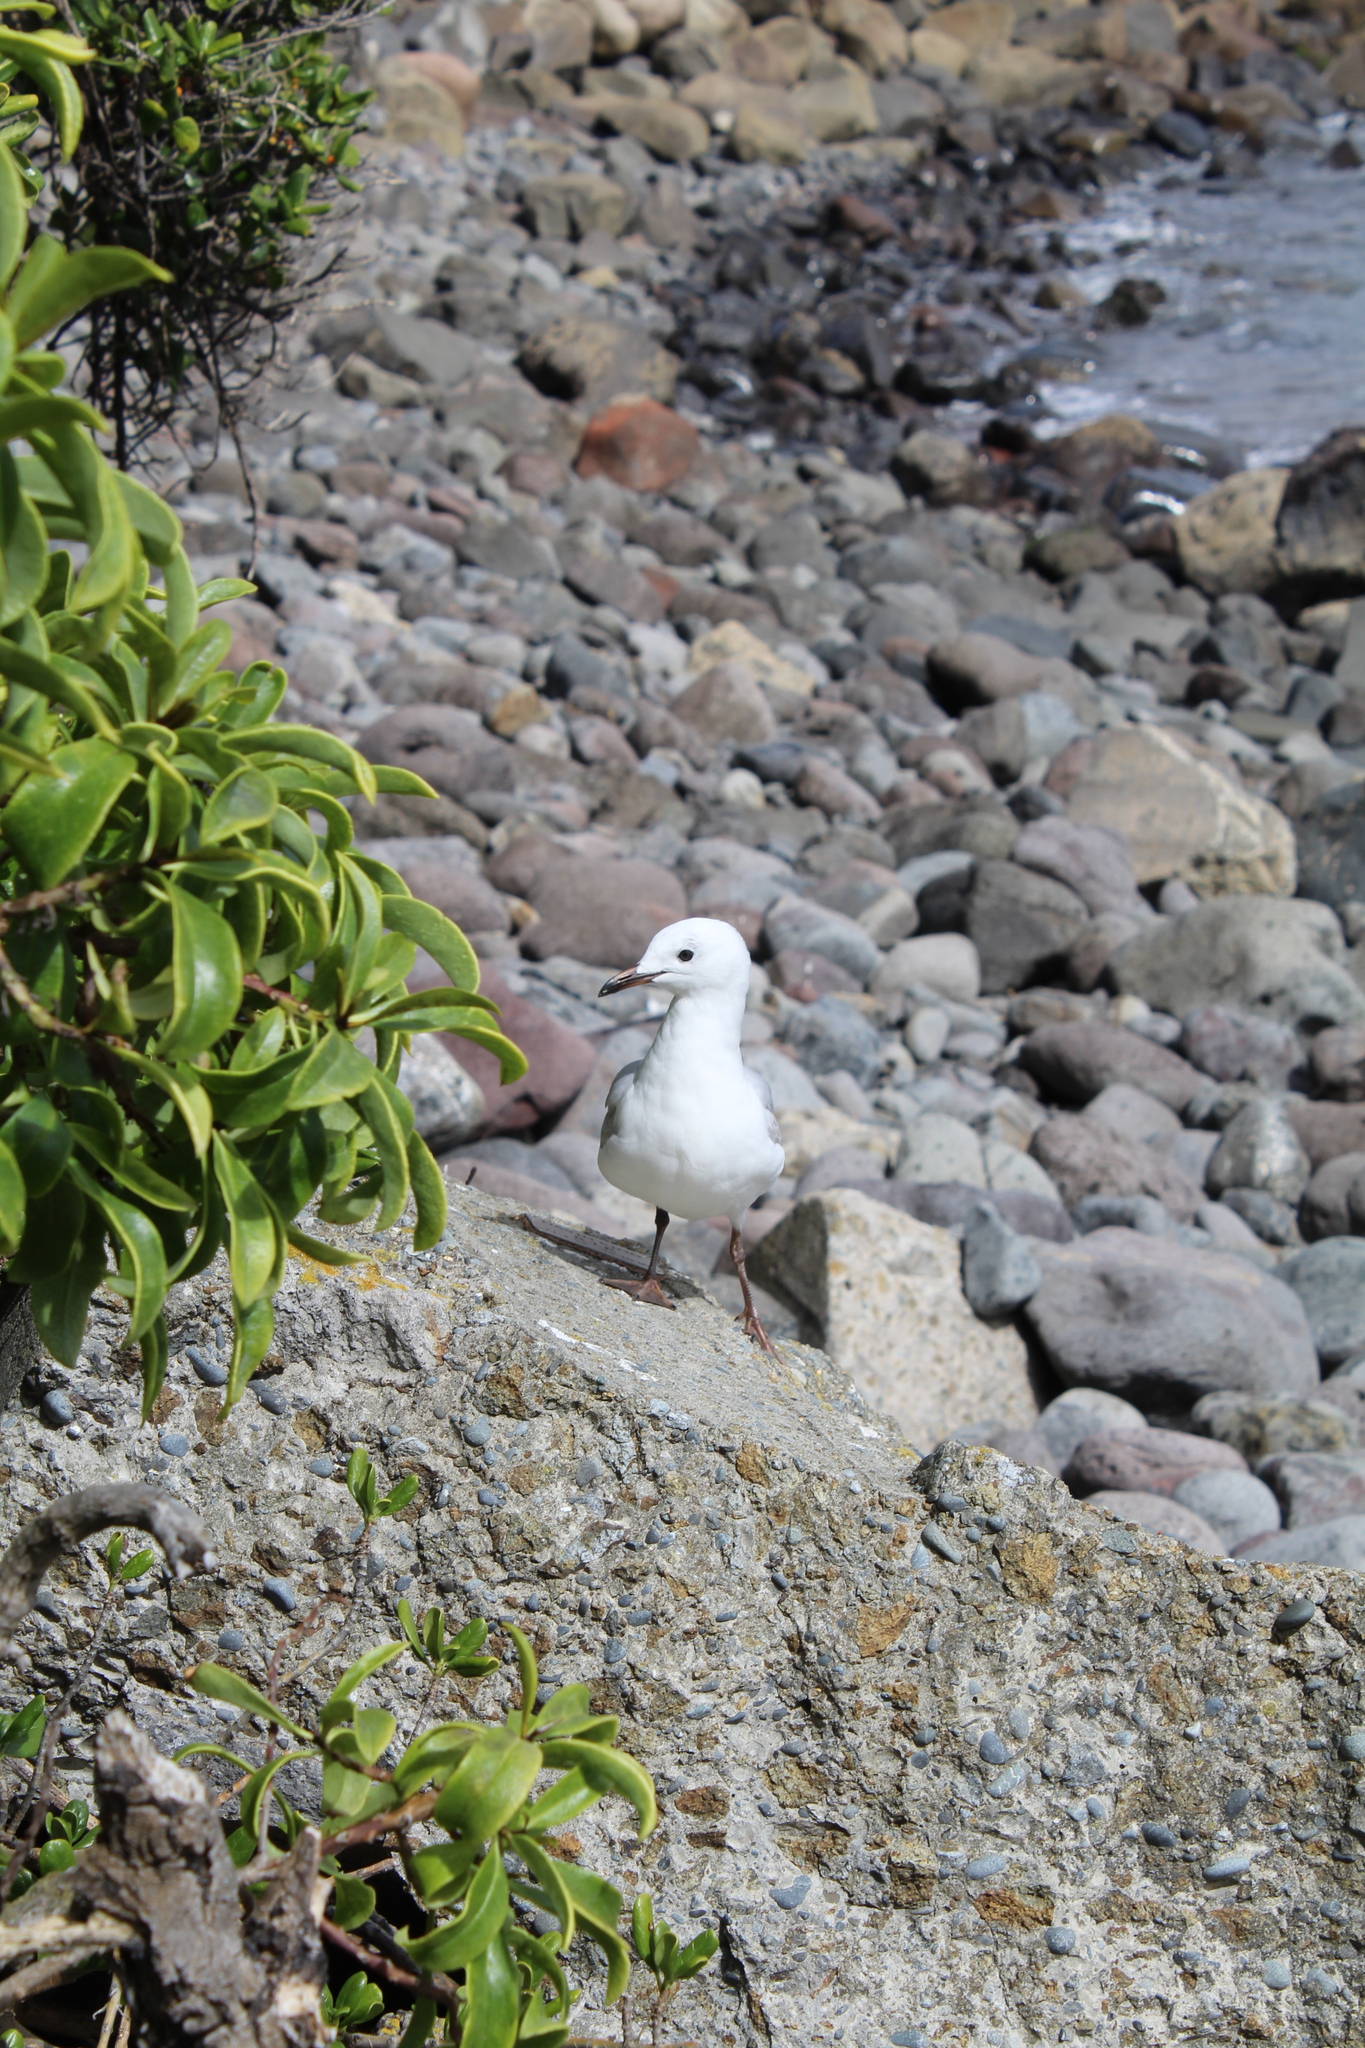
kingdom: Animalia
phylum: Chordata
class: Aves
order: Charadriiformes
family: Laridae
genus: Chroicocephalus
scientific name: Chroicocephalus novaehollandiae
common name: Silver gull
